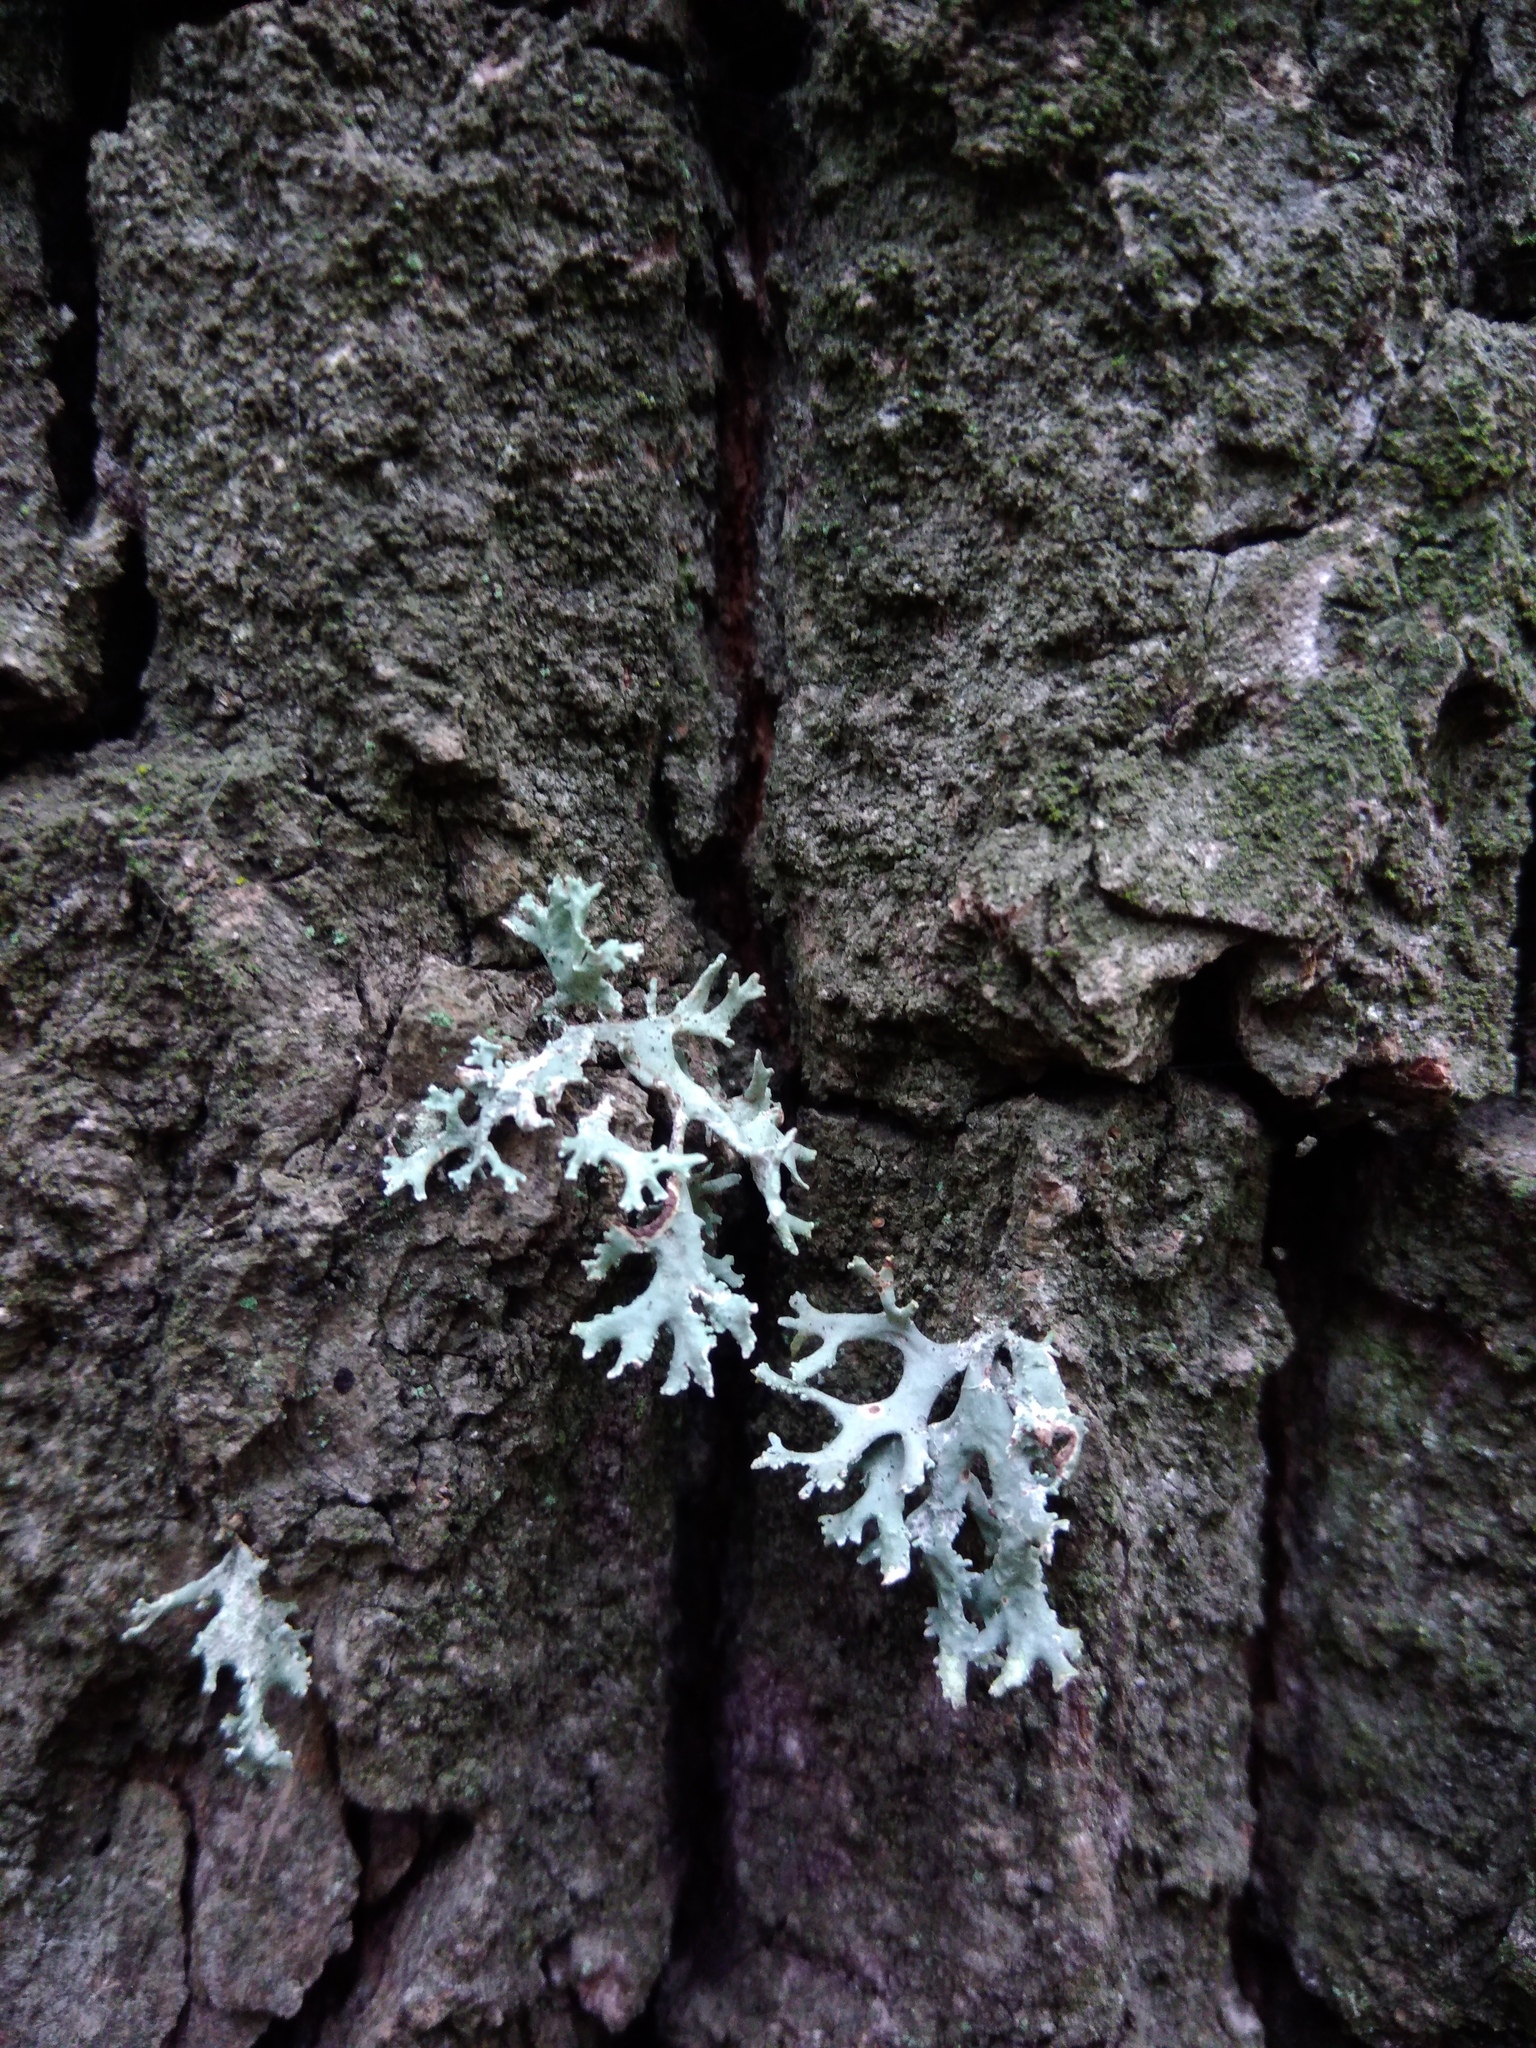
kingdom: Fungi
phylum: Ascomycota
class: Lecanoromycetes
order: Lecanorales
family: Parmeliaceae
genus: Evernia
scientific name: Evernia prunastri
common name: Oak moss
